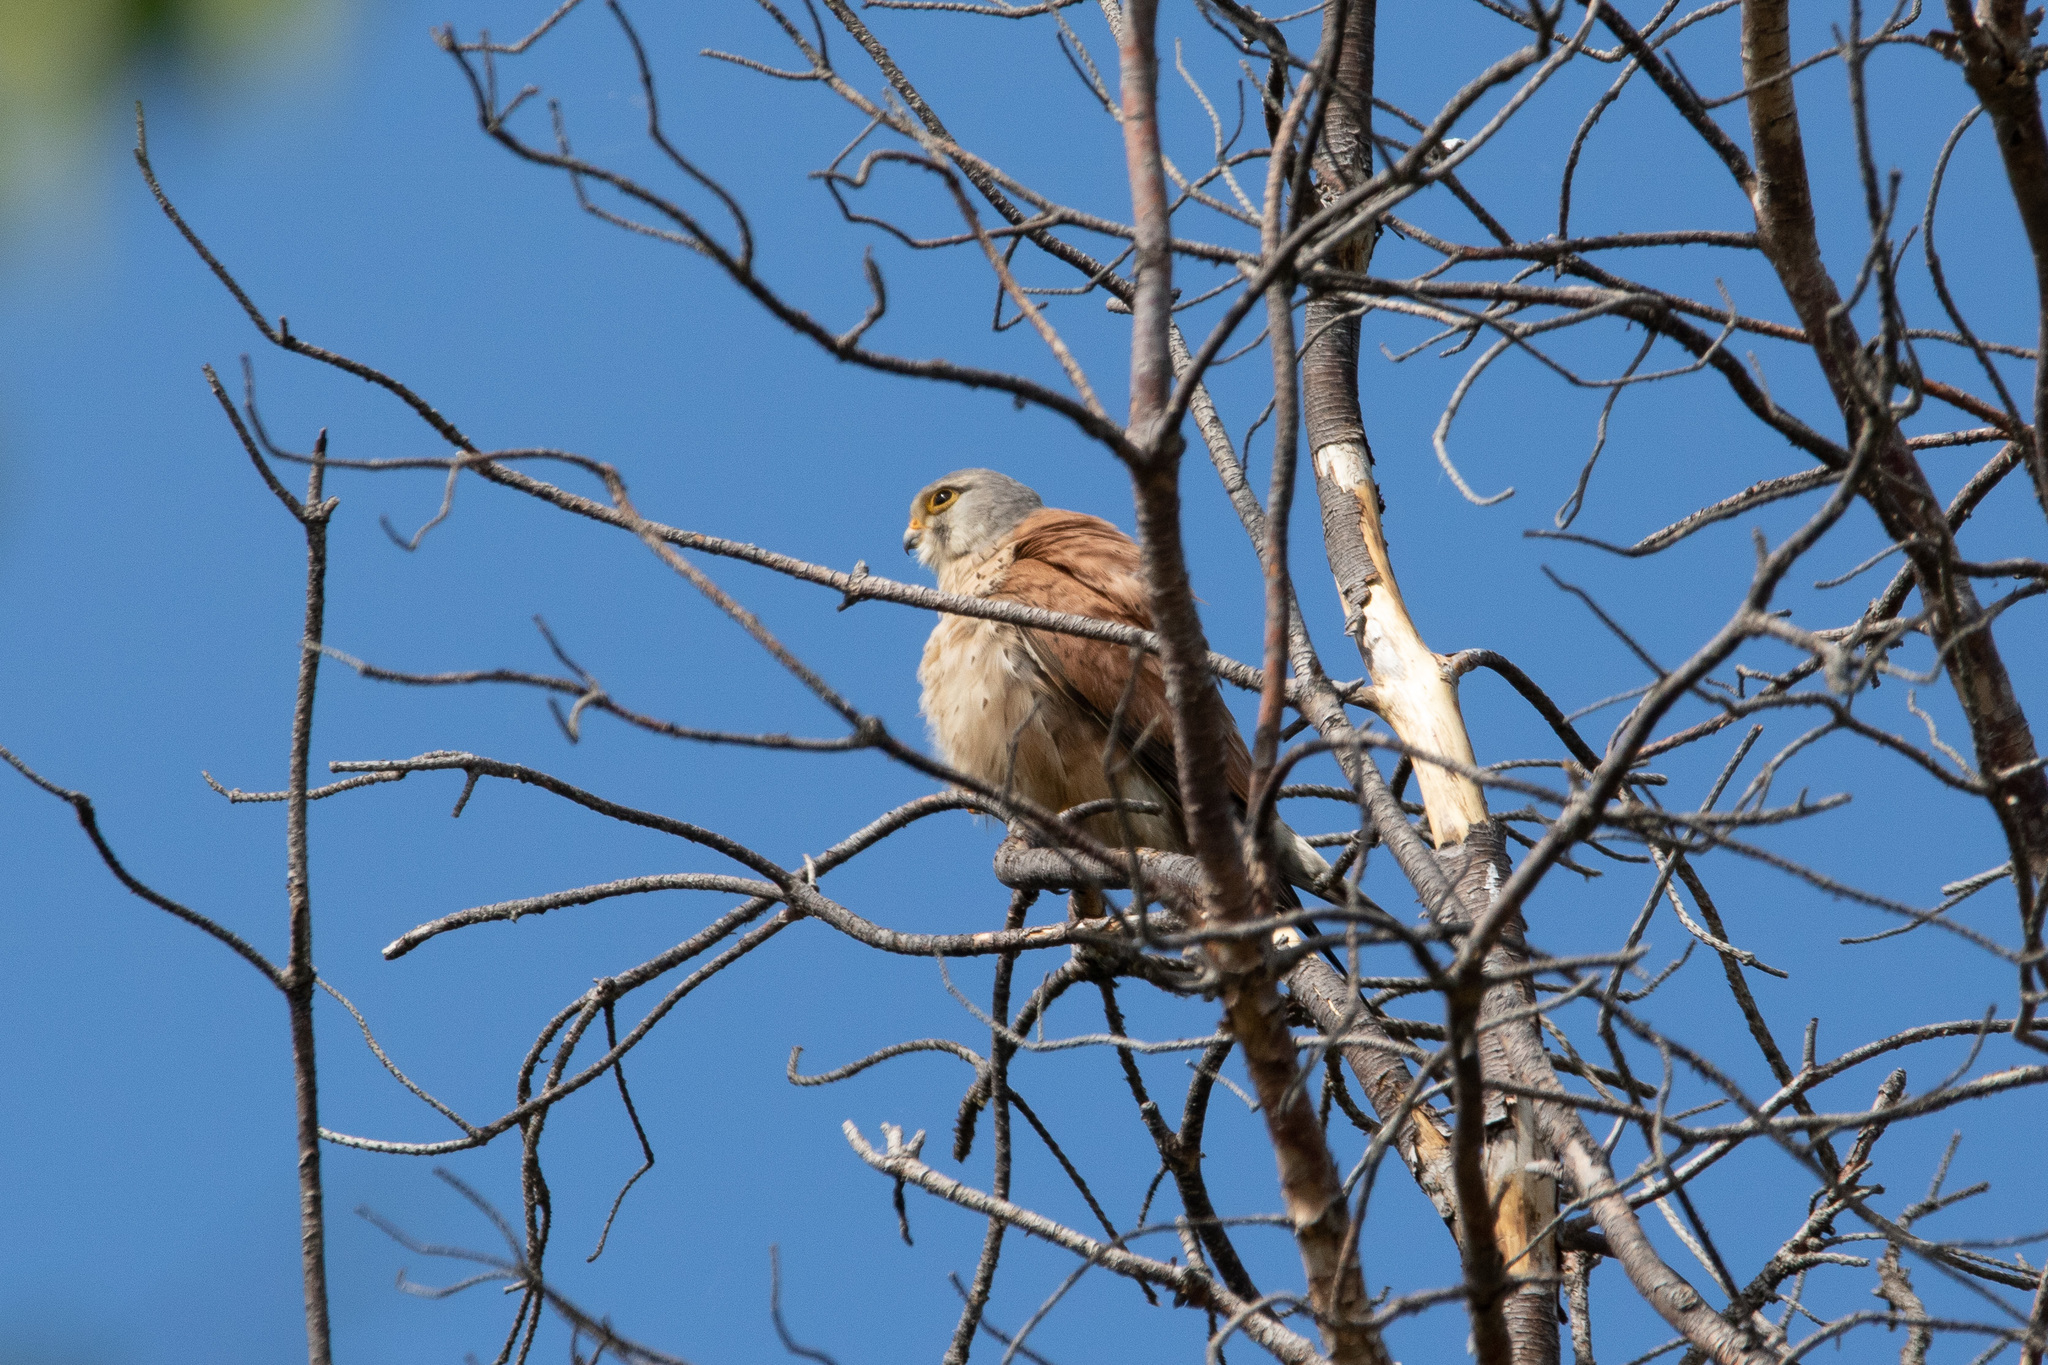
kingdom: Animalia
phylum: Chordata
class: Aves
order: Falconiformes
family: Falconidae
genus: Falco
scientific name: Falco tinnunculus
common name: Common kestrel
